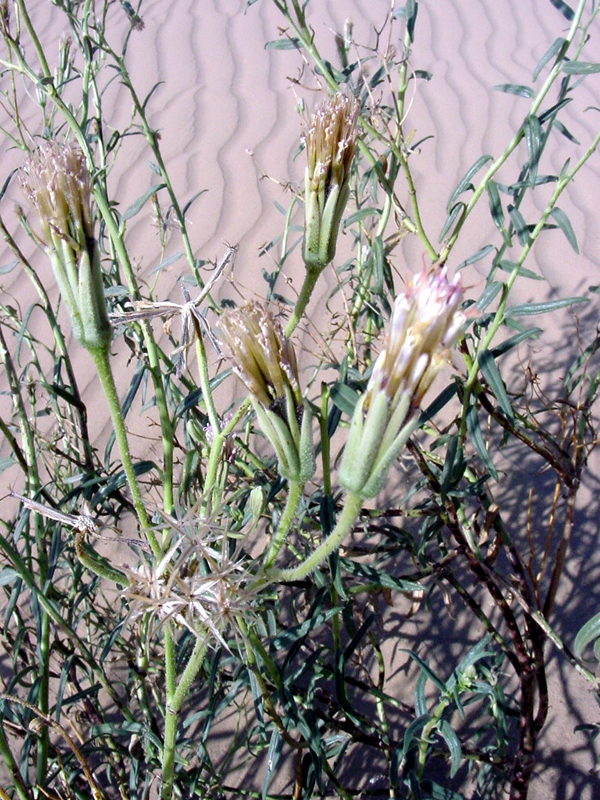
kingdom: Plantae
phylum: Tracheophyta
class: Magnoliopsida
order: Asterales
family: Asteraceae
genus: Palafoxia
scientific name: Palafoxia arida
